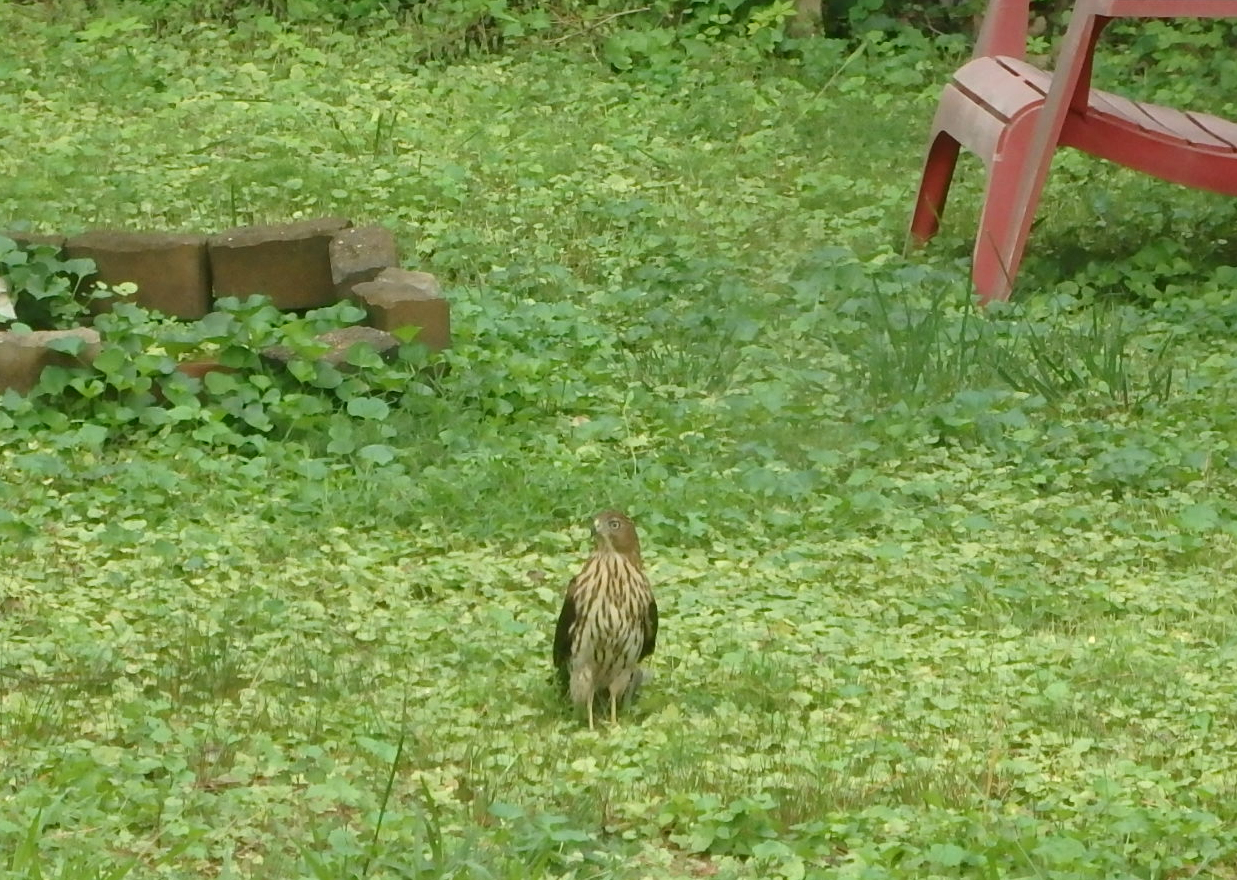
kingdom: Animalia
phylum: Chordata
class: Aves
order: Accipitriformes
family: Accipitridae
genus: Accipiter
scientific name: Accipiter cooperii
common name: Cooper's hawk
